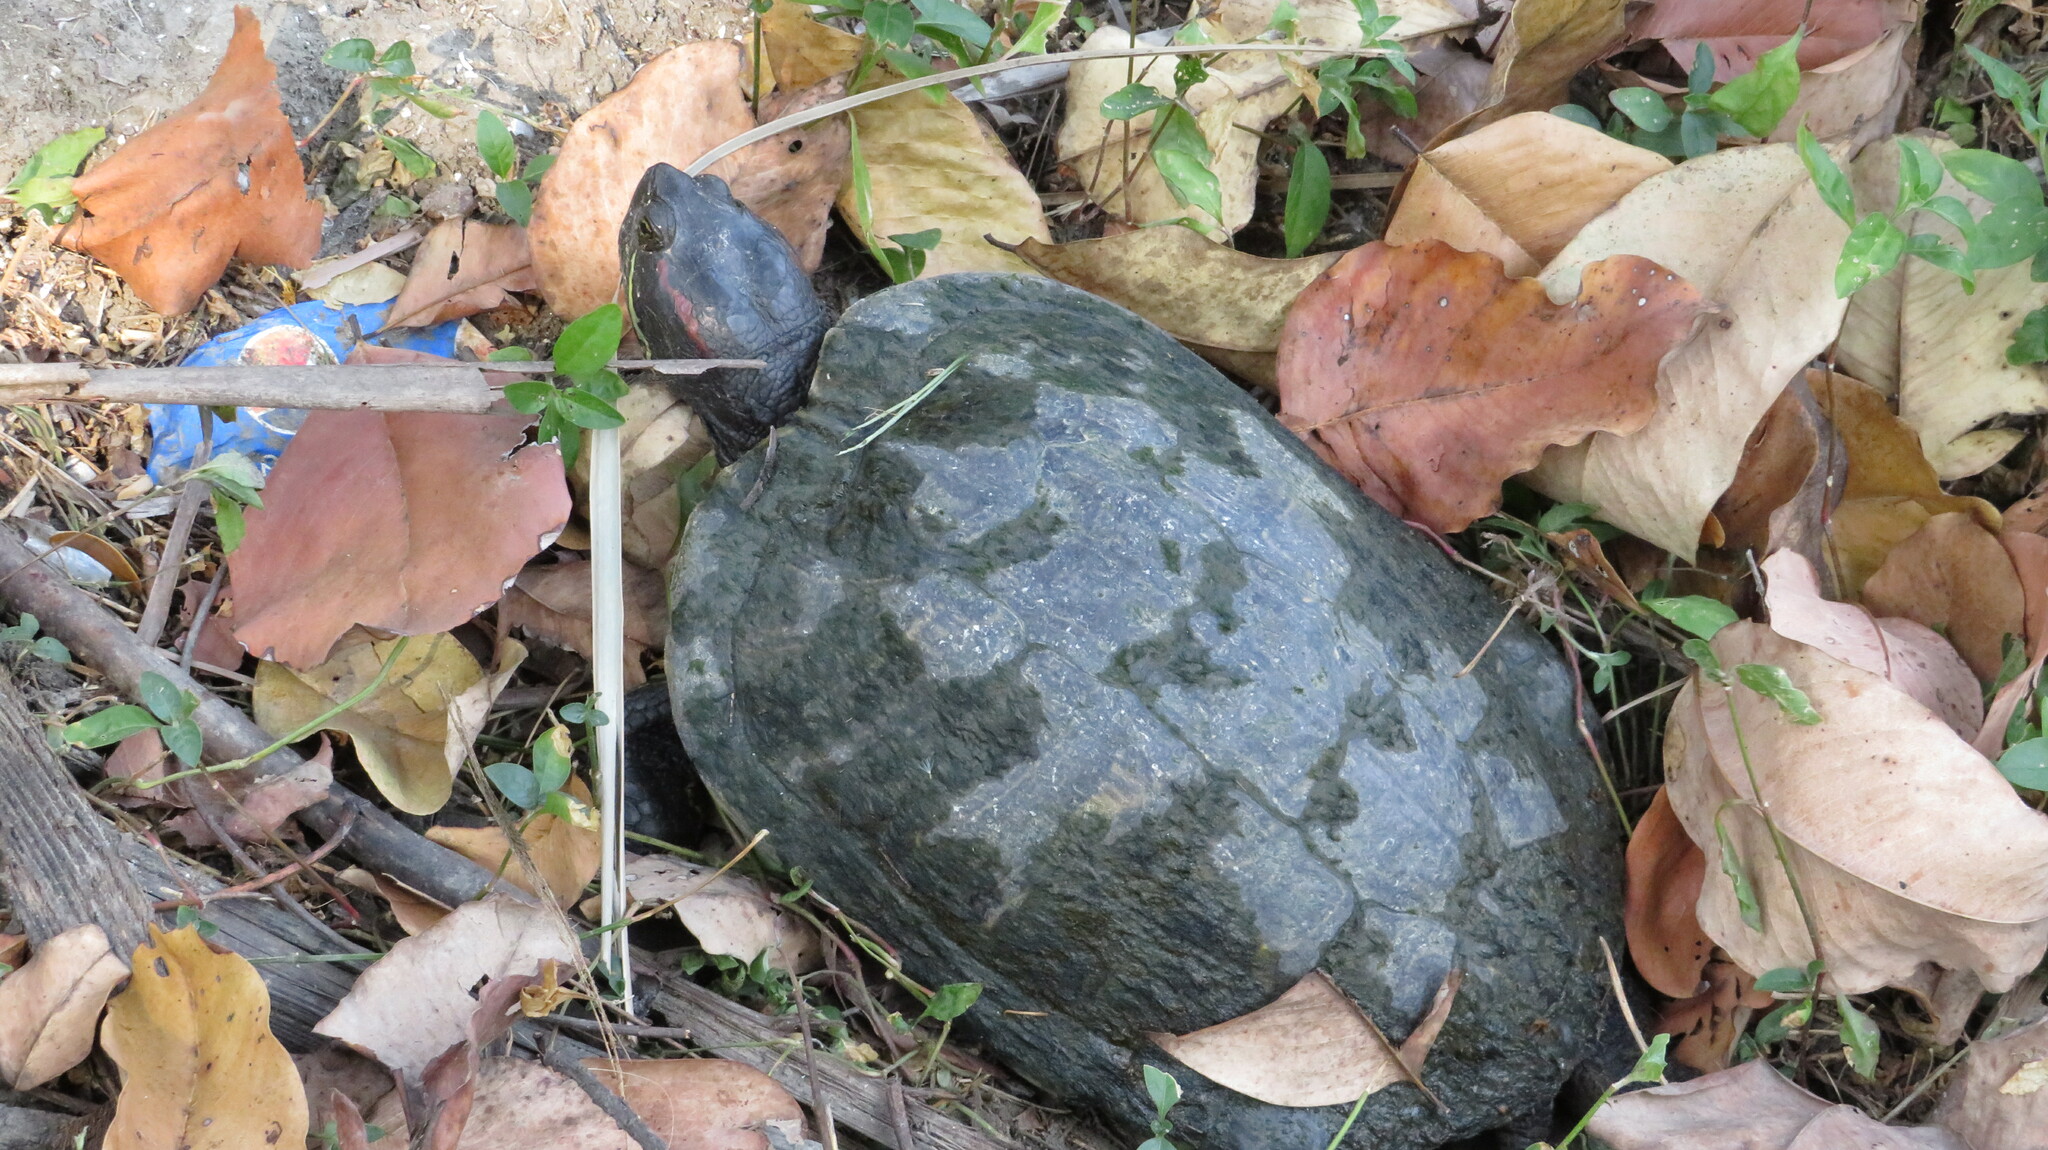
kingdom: Animalia
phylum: Chordata
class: Testudines
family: Emydidae
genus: Trachemys
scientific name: Trachemys scripta
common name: Slider
